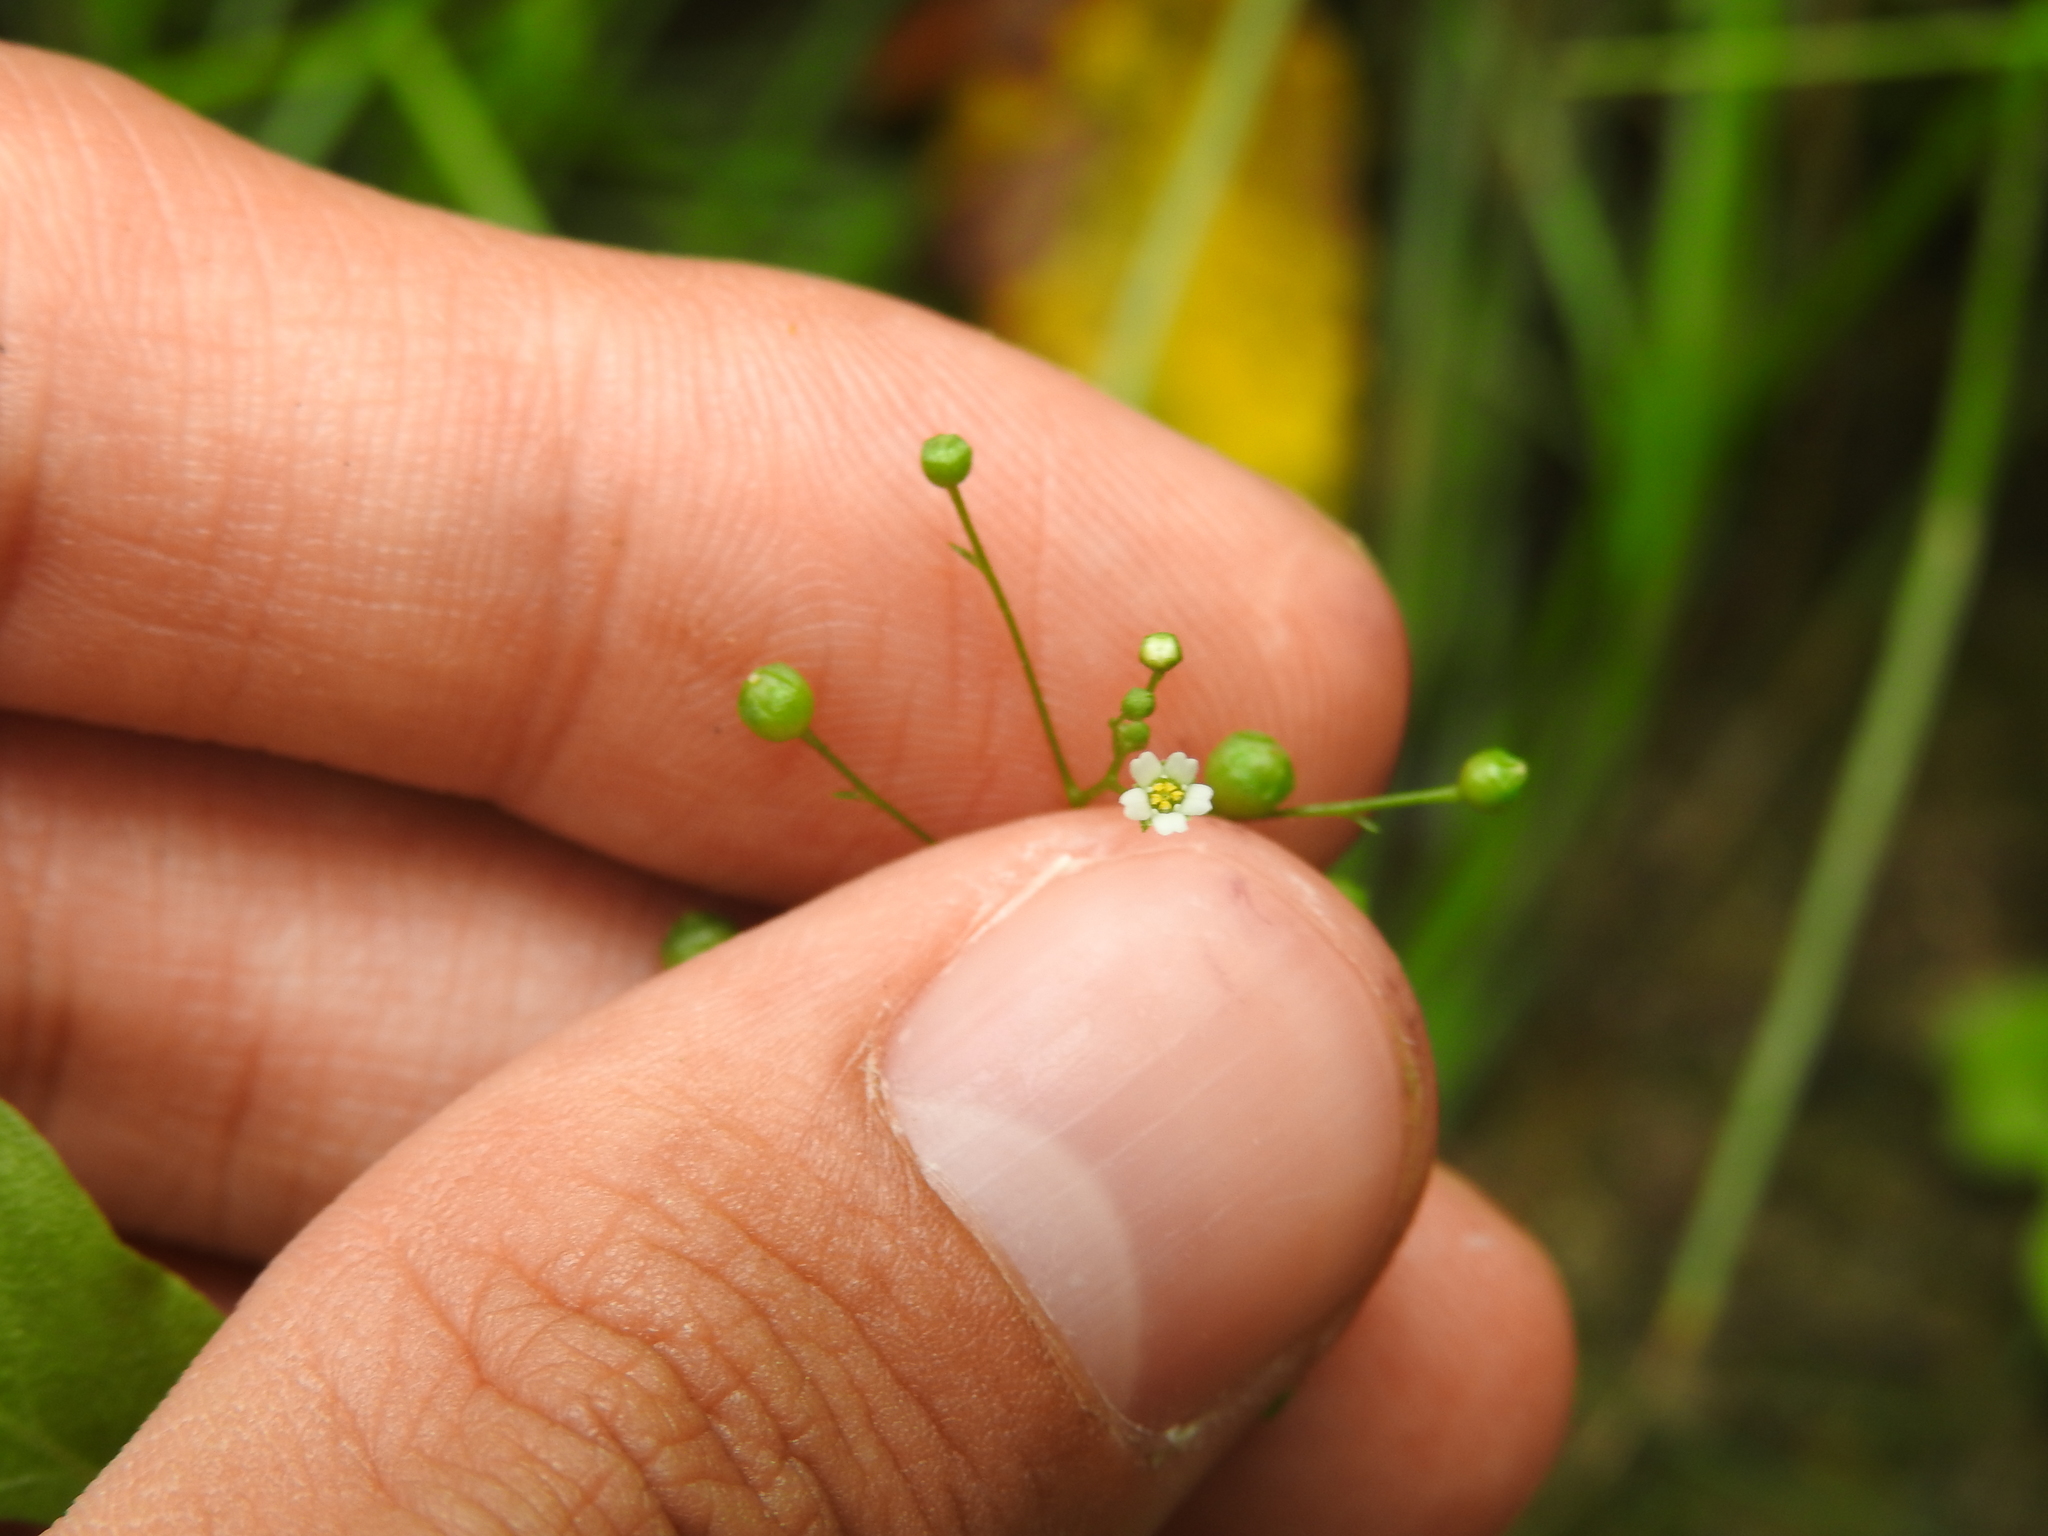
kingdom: Plantae
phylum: Tracheophyta
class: Magnoliopsida
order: Ericales
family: Primulaceae
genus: Samolus
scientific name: Samolus parviflorus
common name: False water pimpernel
